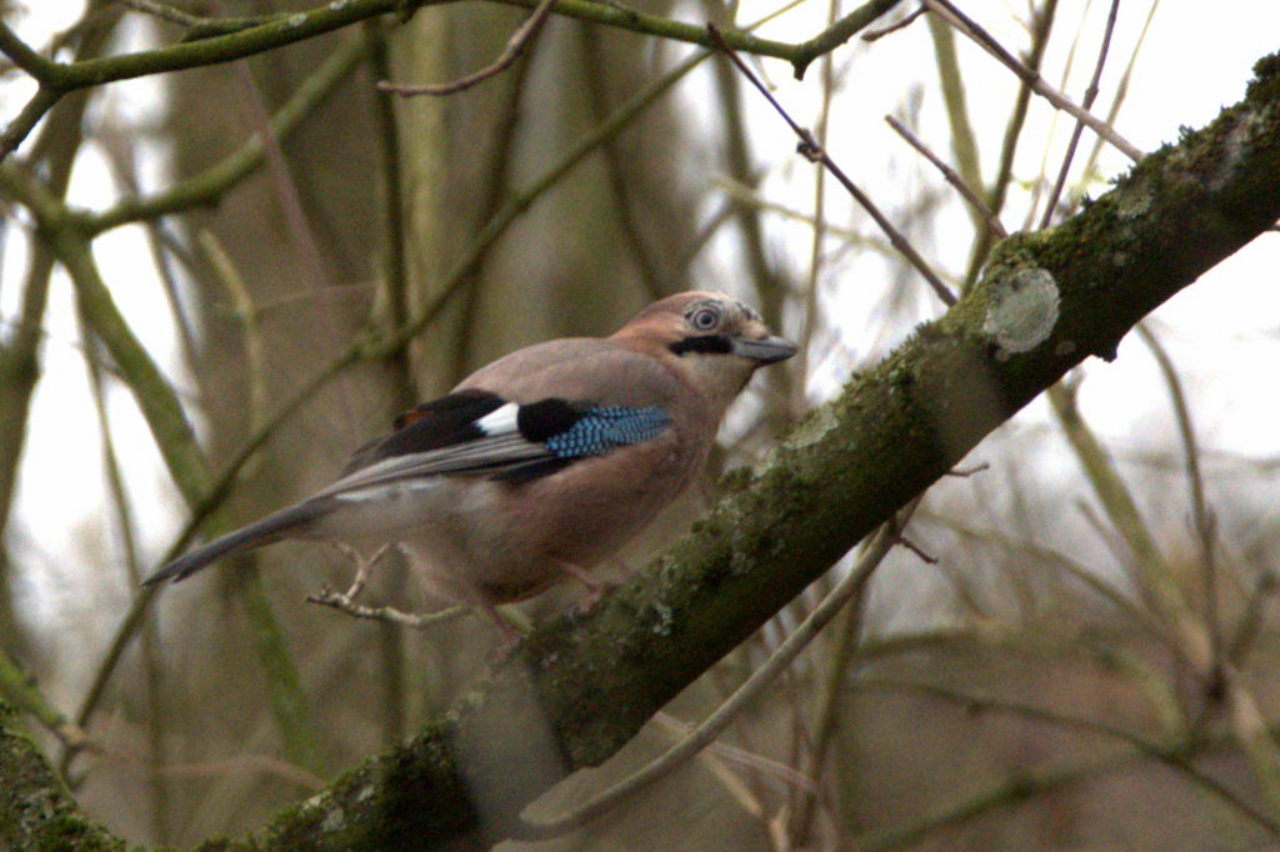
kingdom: Animalia
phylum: Chordata
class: Aves
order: Passeriformes
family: Corvidae
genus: Garrulus
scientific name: Garrulus glandarius
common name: Eurasian jay
